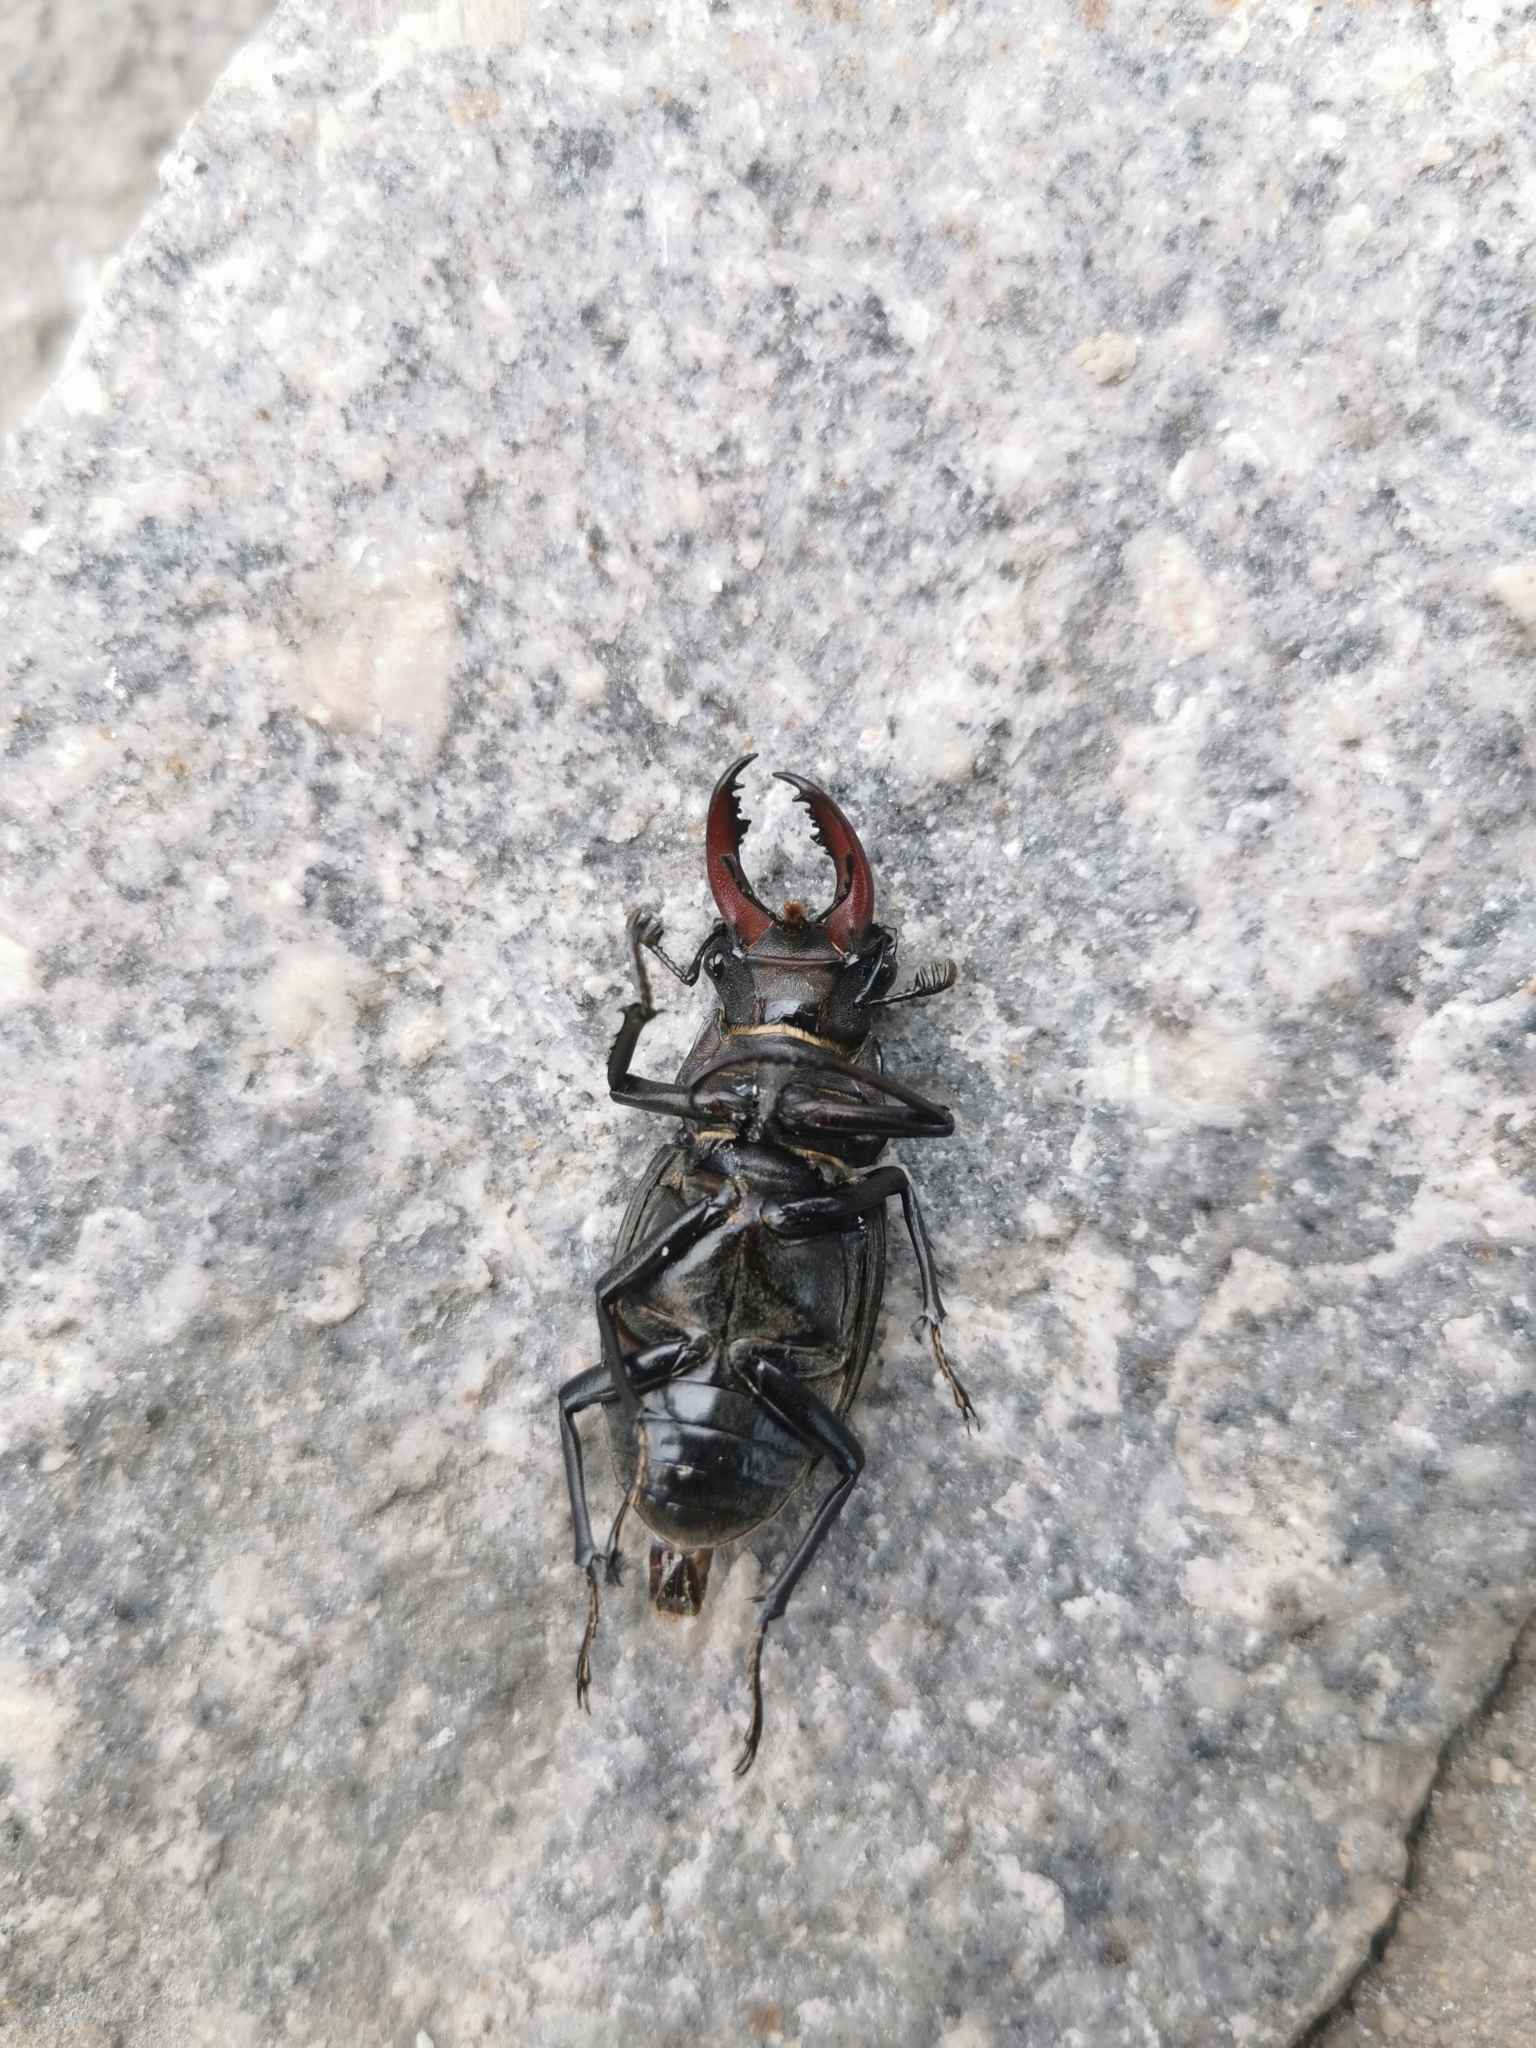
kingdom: Animalia
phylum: Arthropoda
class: Insecta
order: Coleoptera
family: Lucanidae
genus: Lucanus
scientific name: Lucanus cervus
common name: Stag beetle
